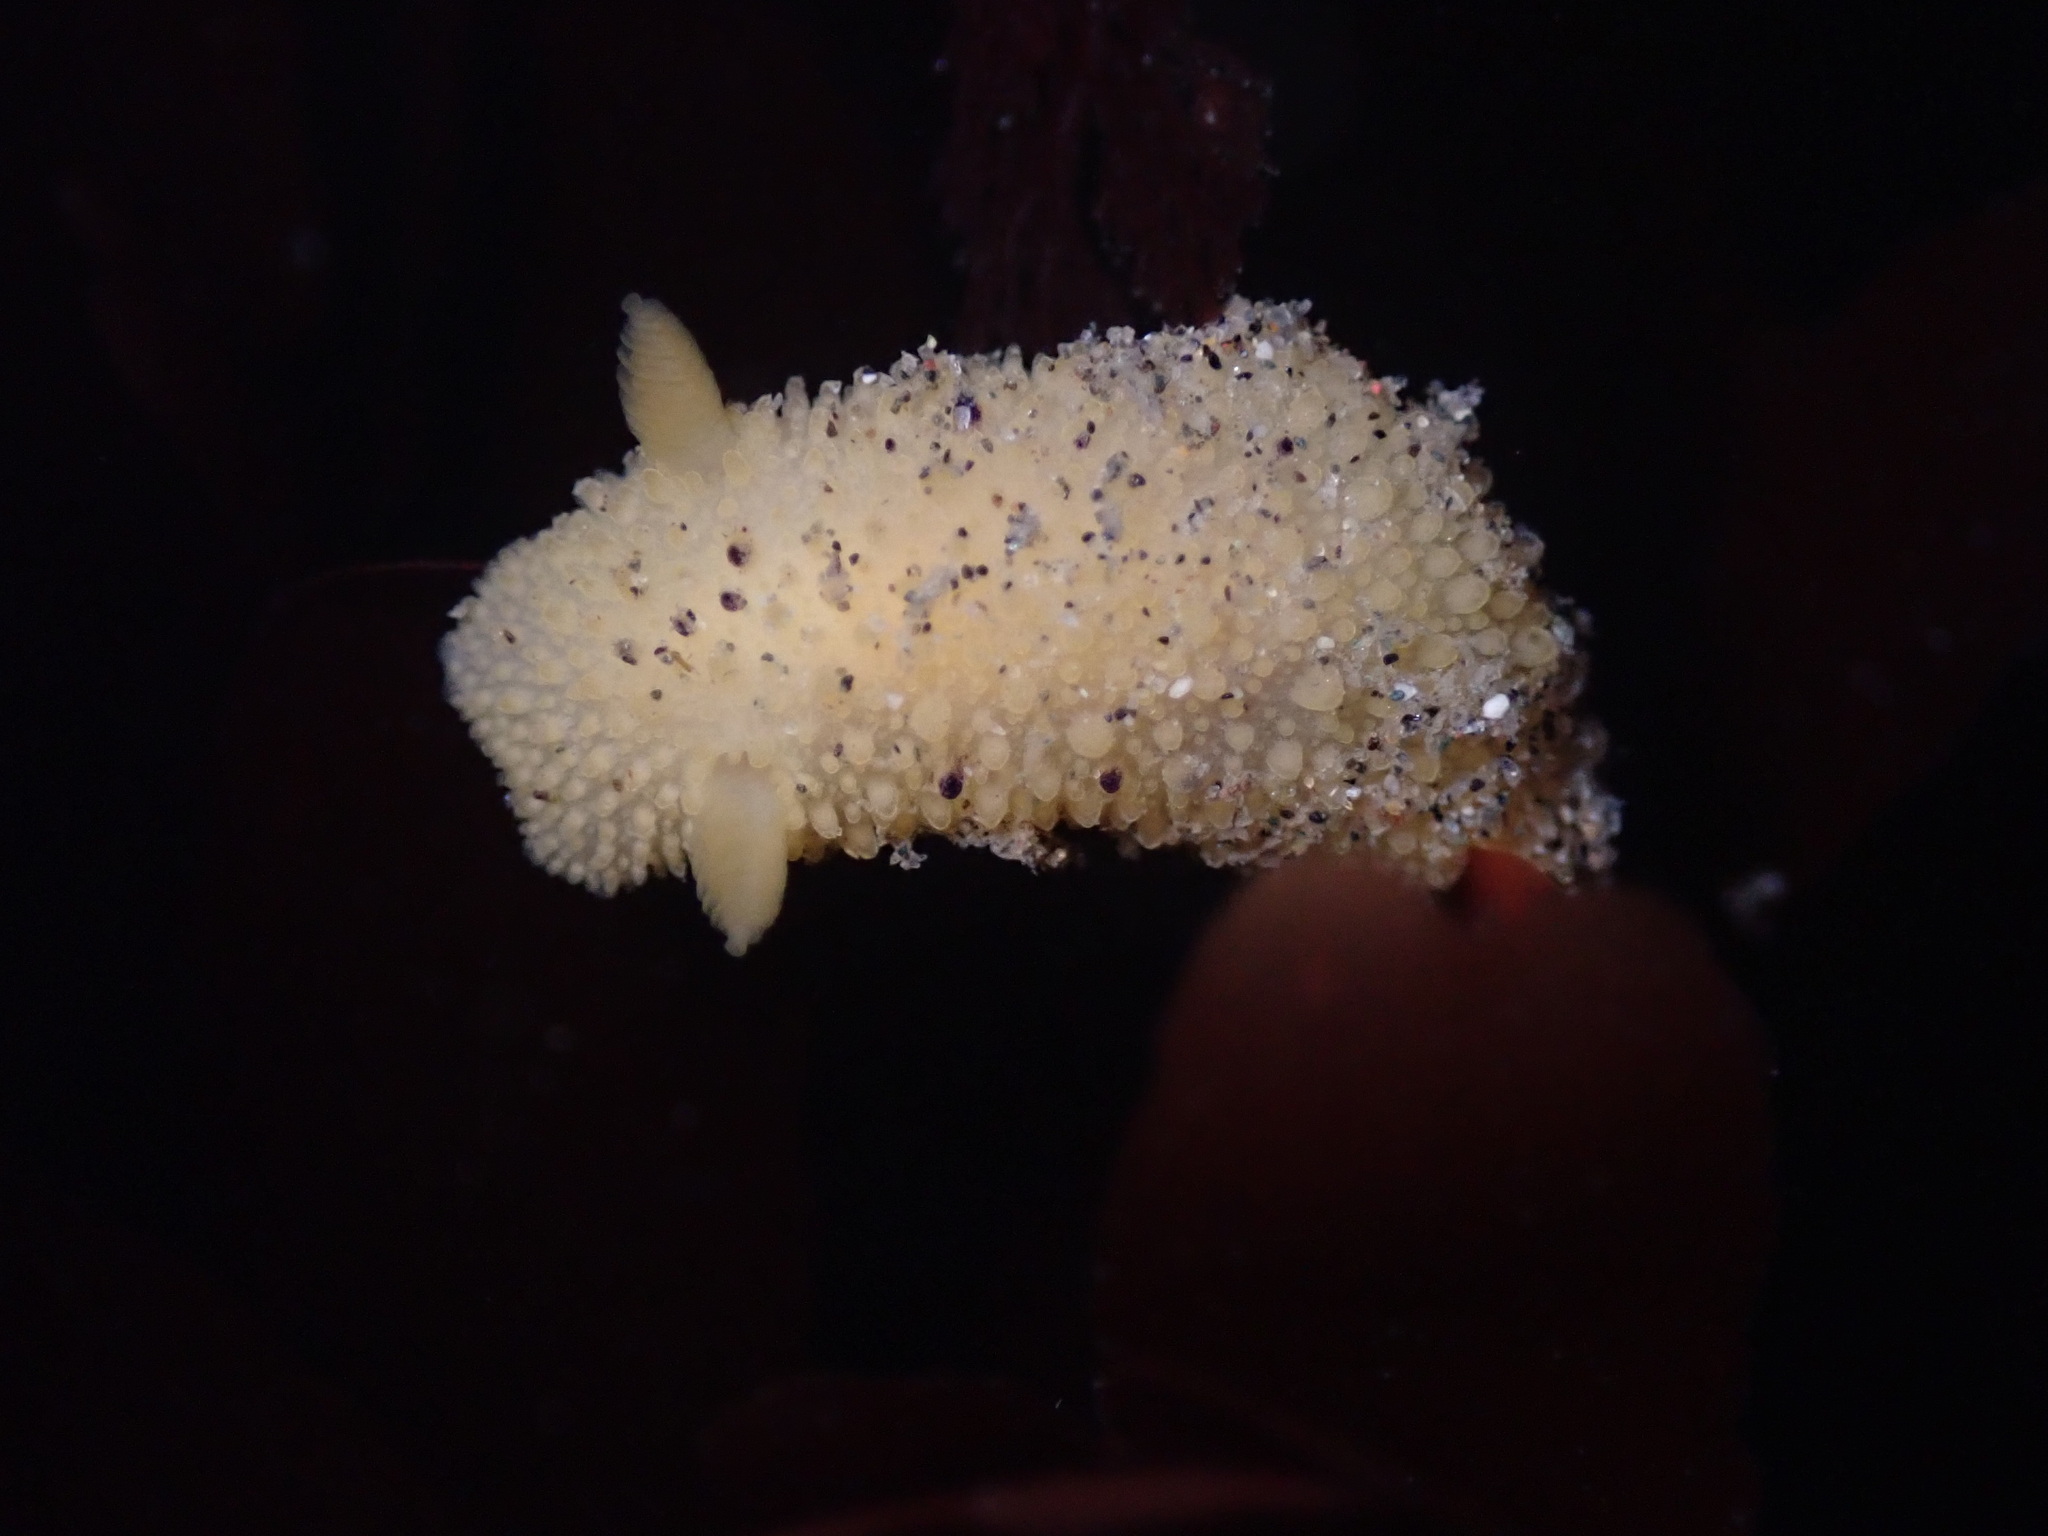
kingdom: Animalia
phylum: Mollusca
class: Gastropoda
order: Nudibranchia
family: Dorididae
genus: Doris
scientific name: Doris montereyensis
